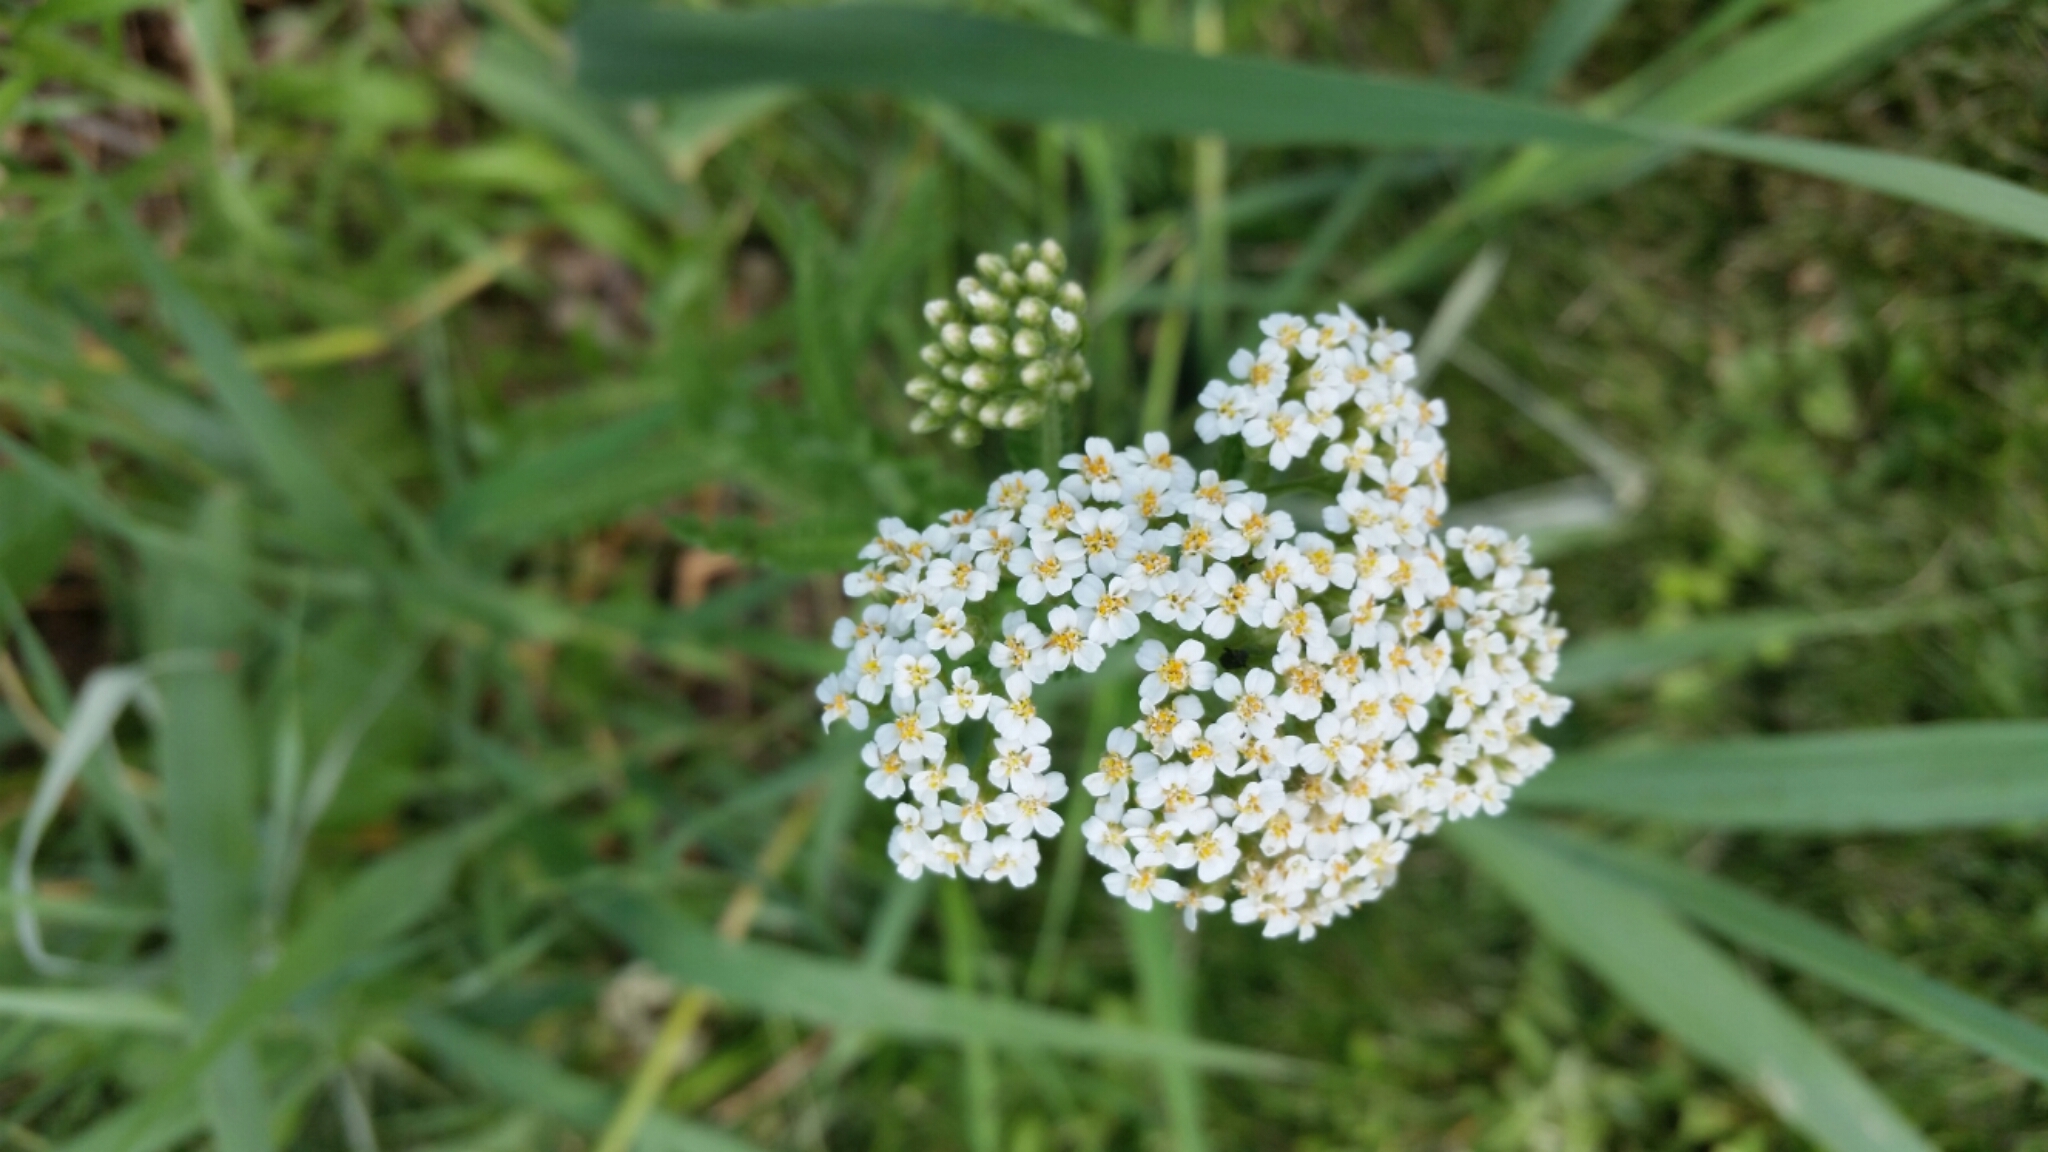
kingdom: Plantae
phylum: Tracheophyta
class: Magnoliopsida
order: Asterales
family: Asteraceae
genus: Achillea
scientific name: Achillea millefolium
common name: Yarrow
